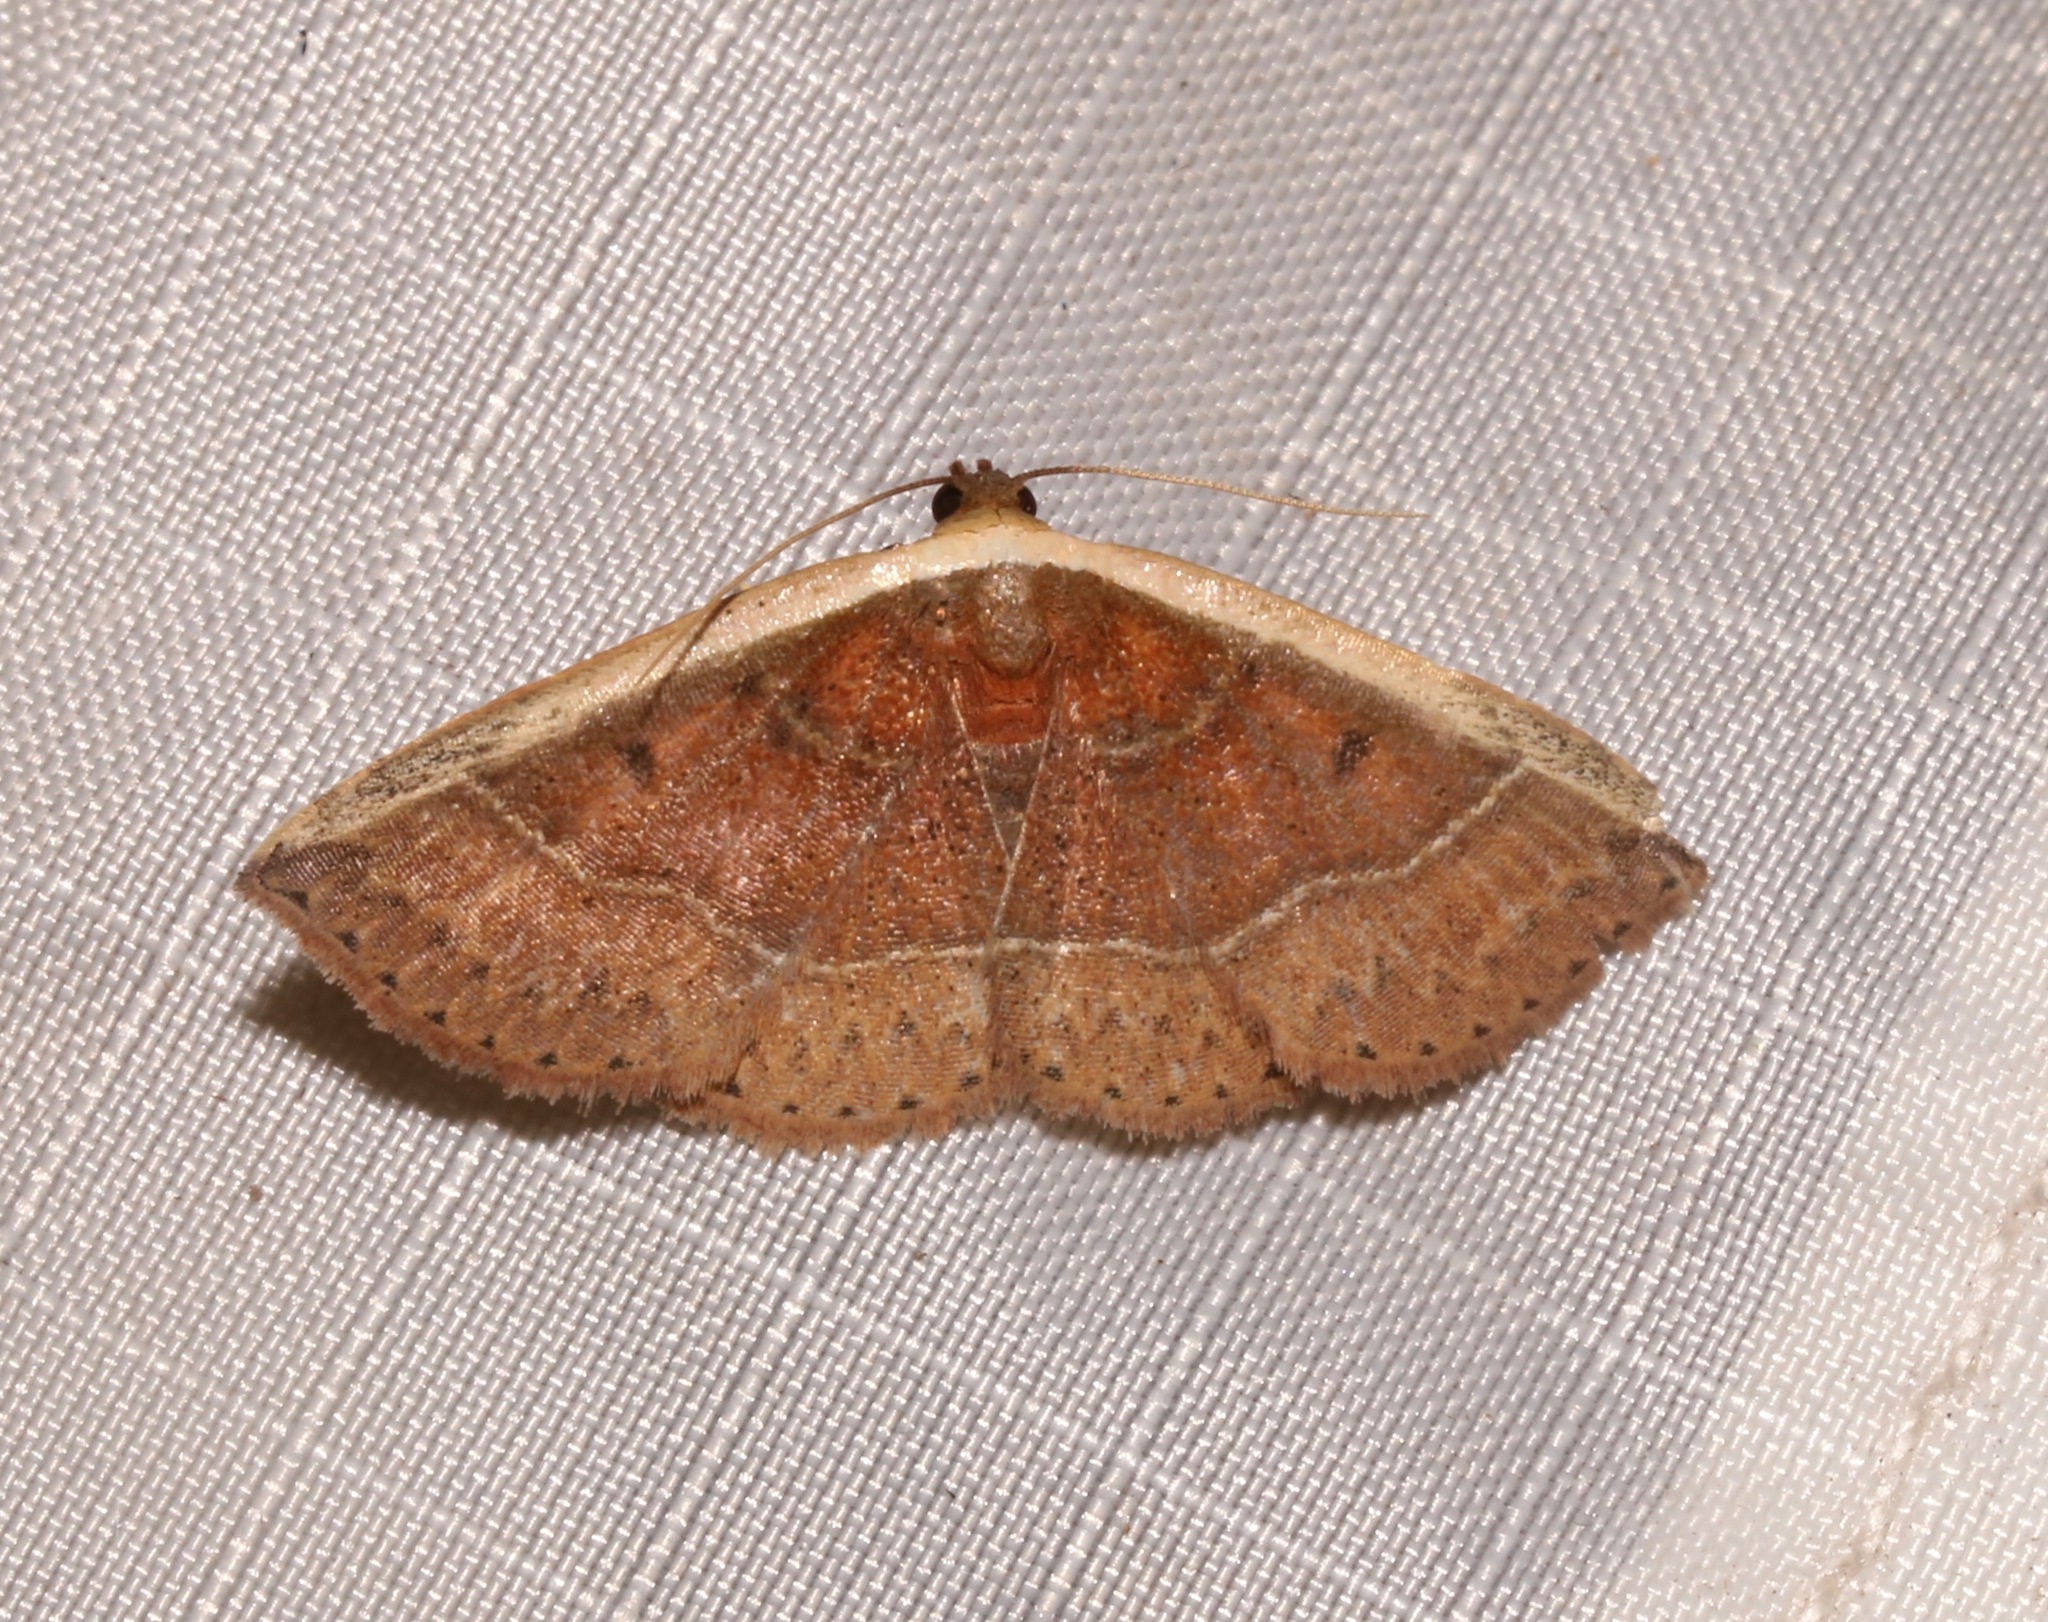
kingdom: Animalia
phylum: Arthropoda
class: Insecta
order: Lepidoptera
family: Noctuidae
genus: Ozarba
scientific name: Ozarba albocostaliata
